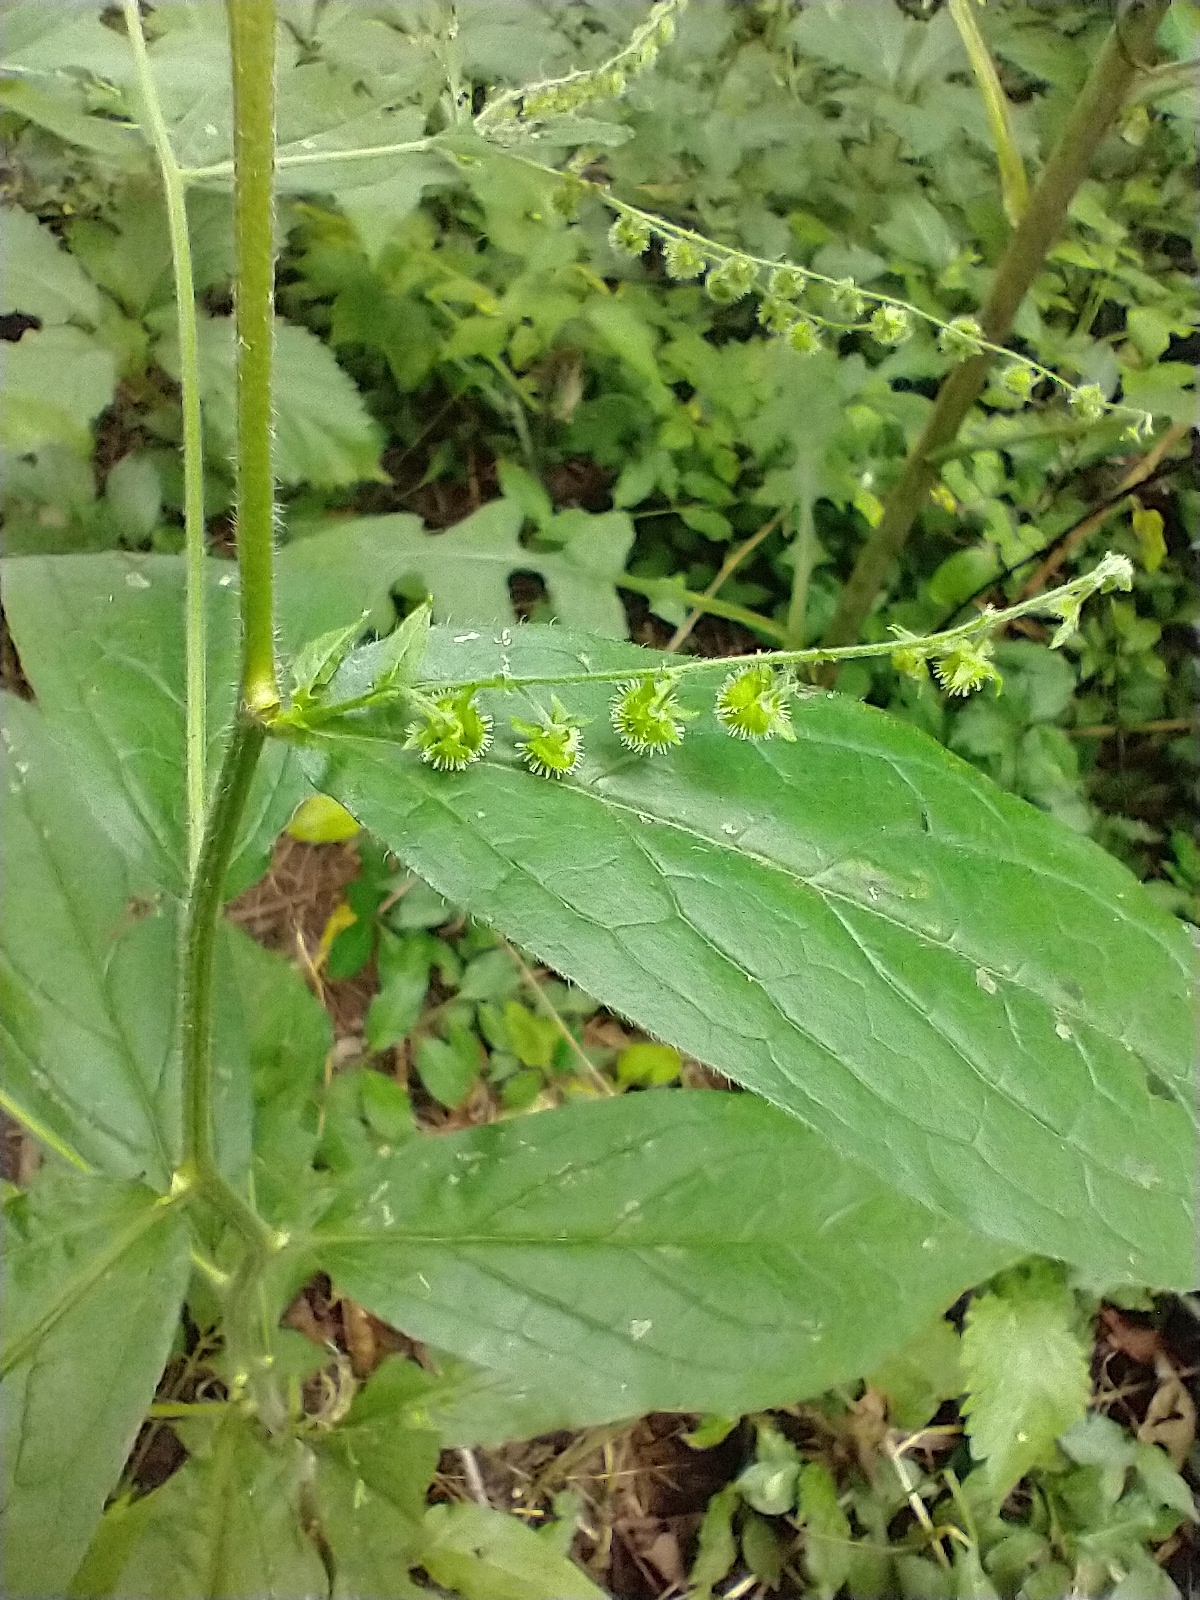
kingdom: Plantae
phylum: Tracheophyta
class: Magnoliopsida
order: Boraginales
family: Boraginaceae
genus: Hackelia
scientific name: Hackelia virginiana
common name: Beggar's-lice
